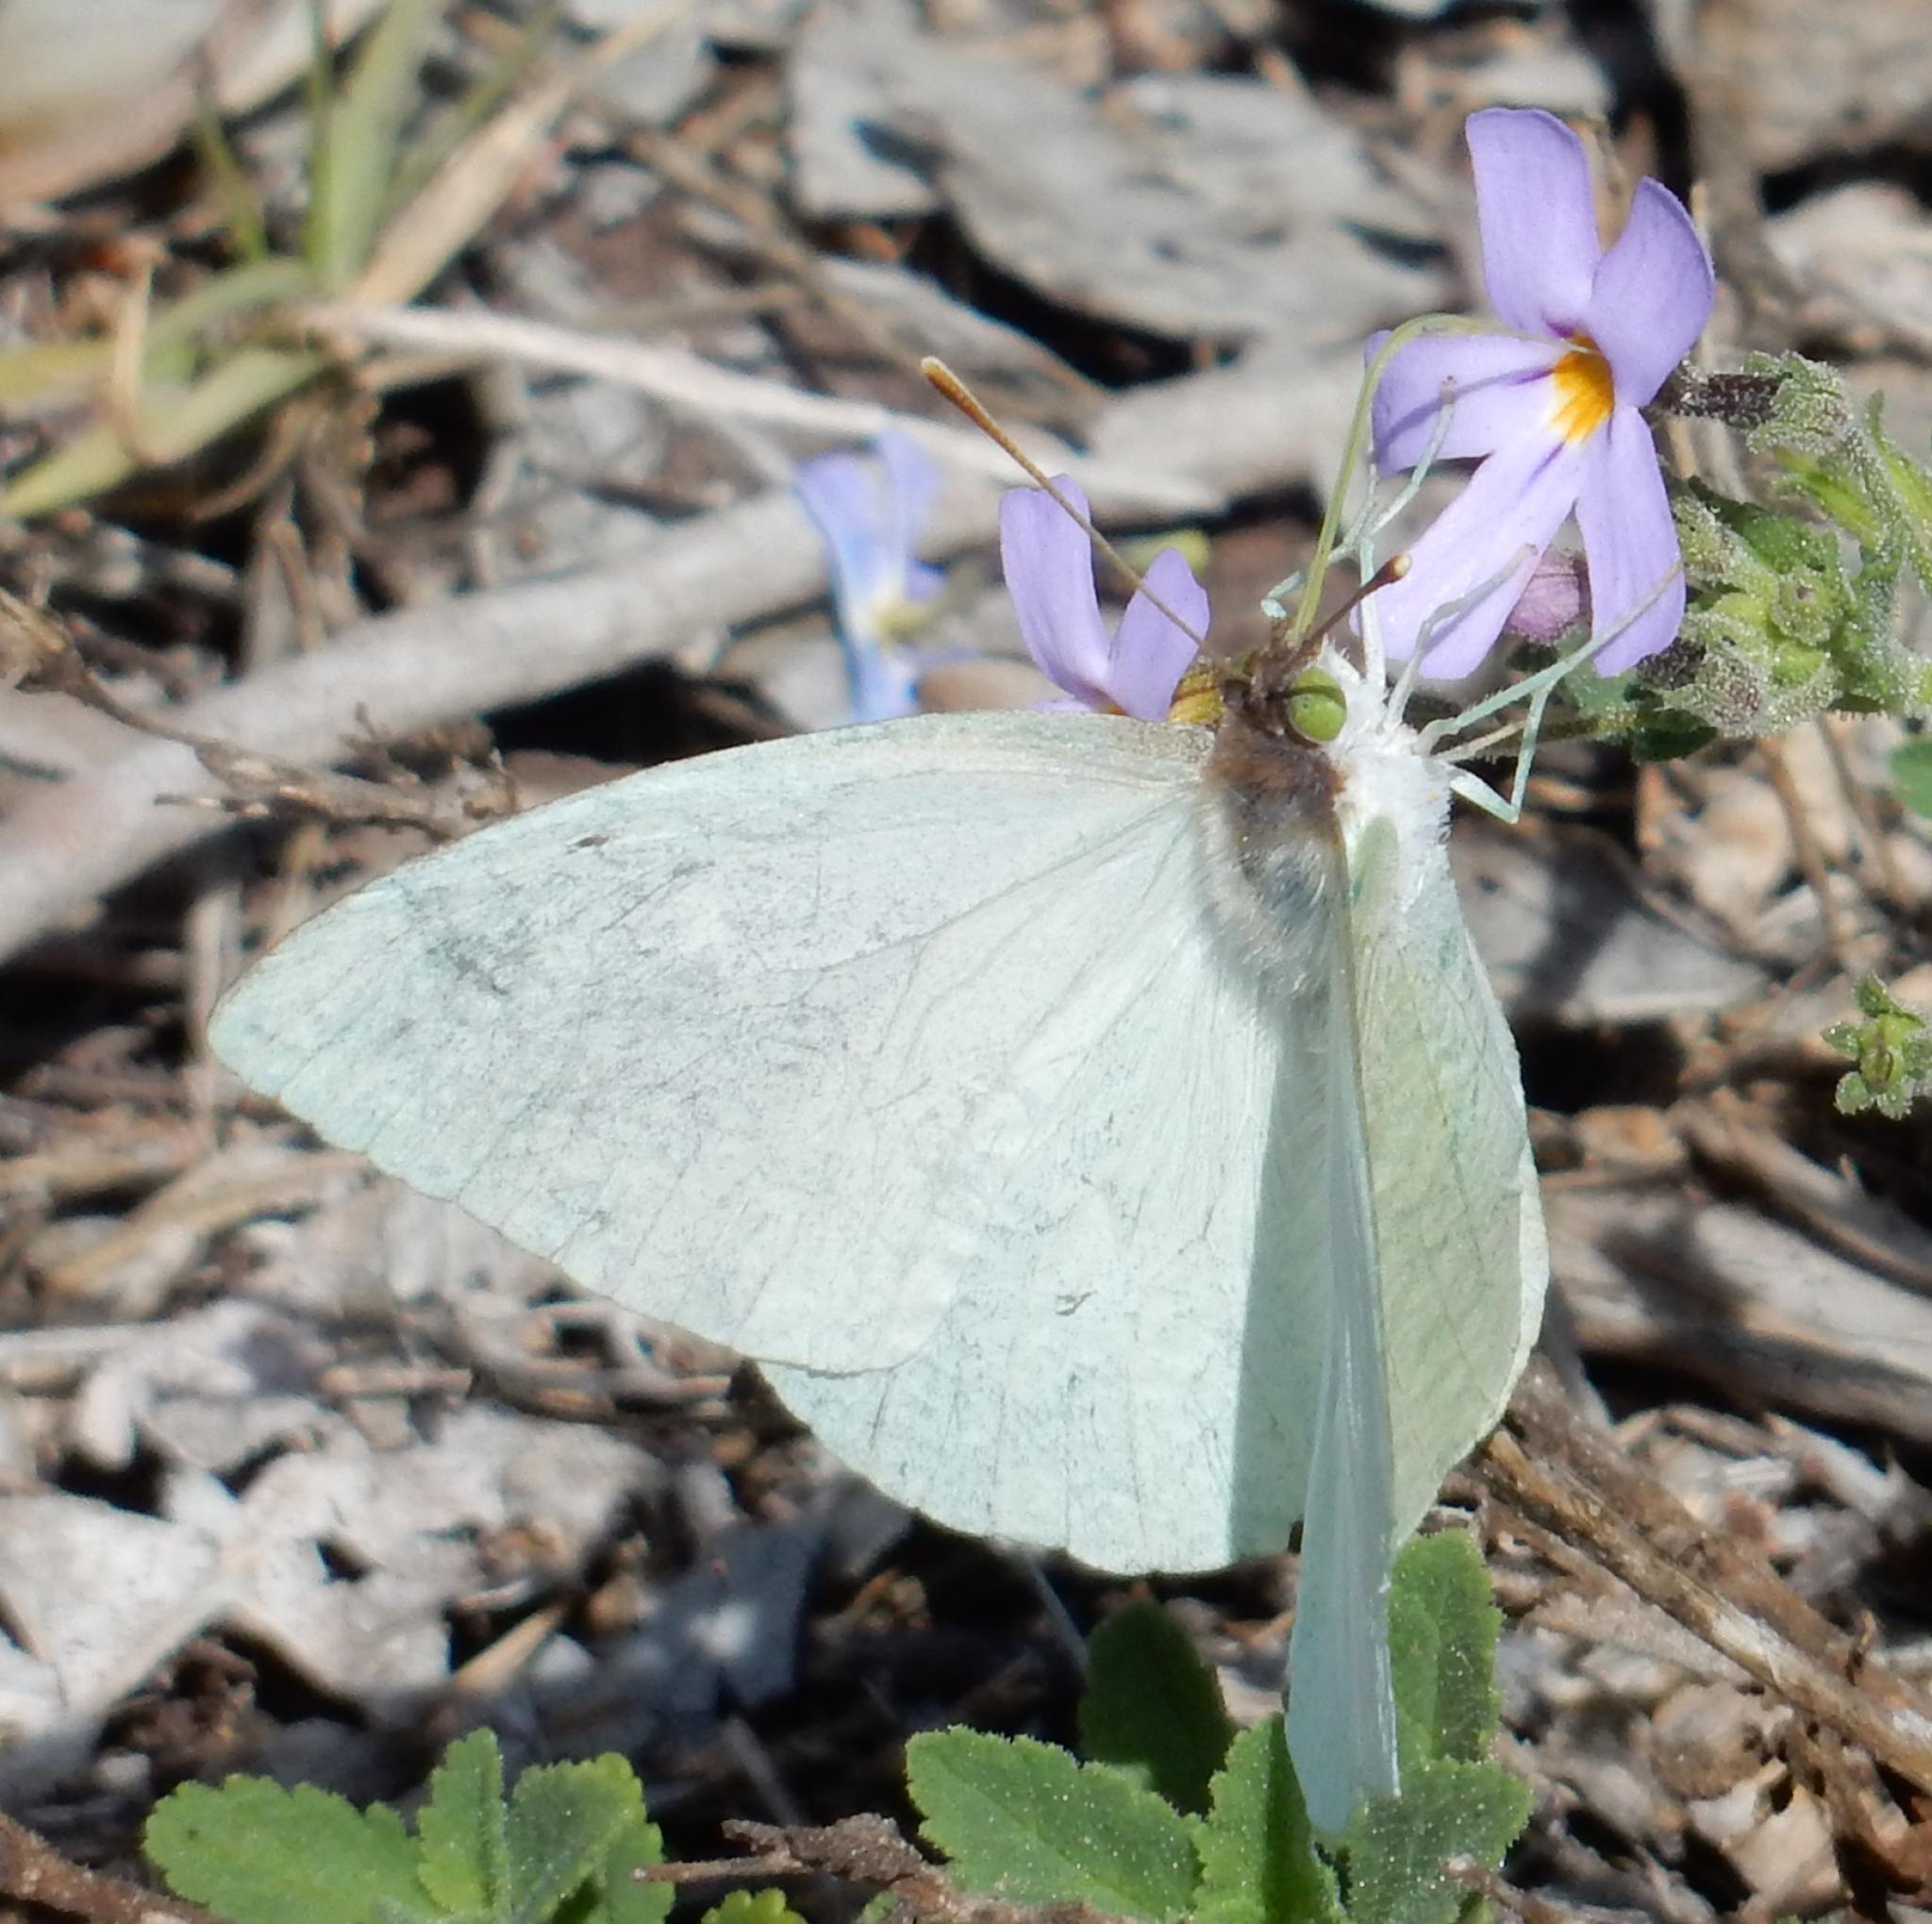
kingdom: Animalia
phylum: Arthropoda
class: Insecta
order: Lepidoptera
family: Pieridae
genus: Nepheronia
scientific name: Nepheronia buquetii
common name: Plain vagrant
